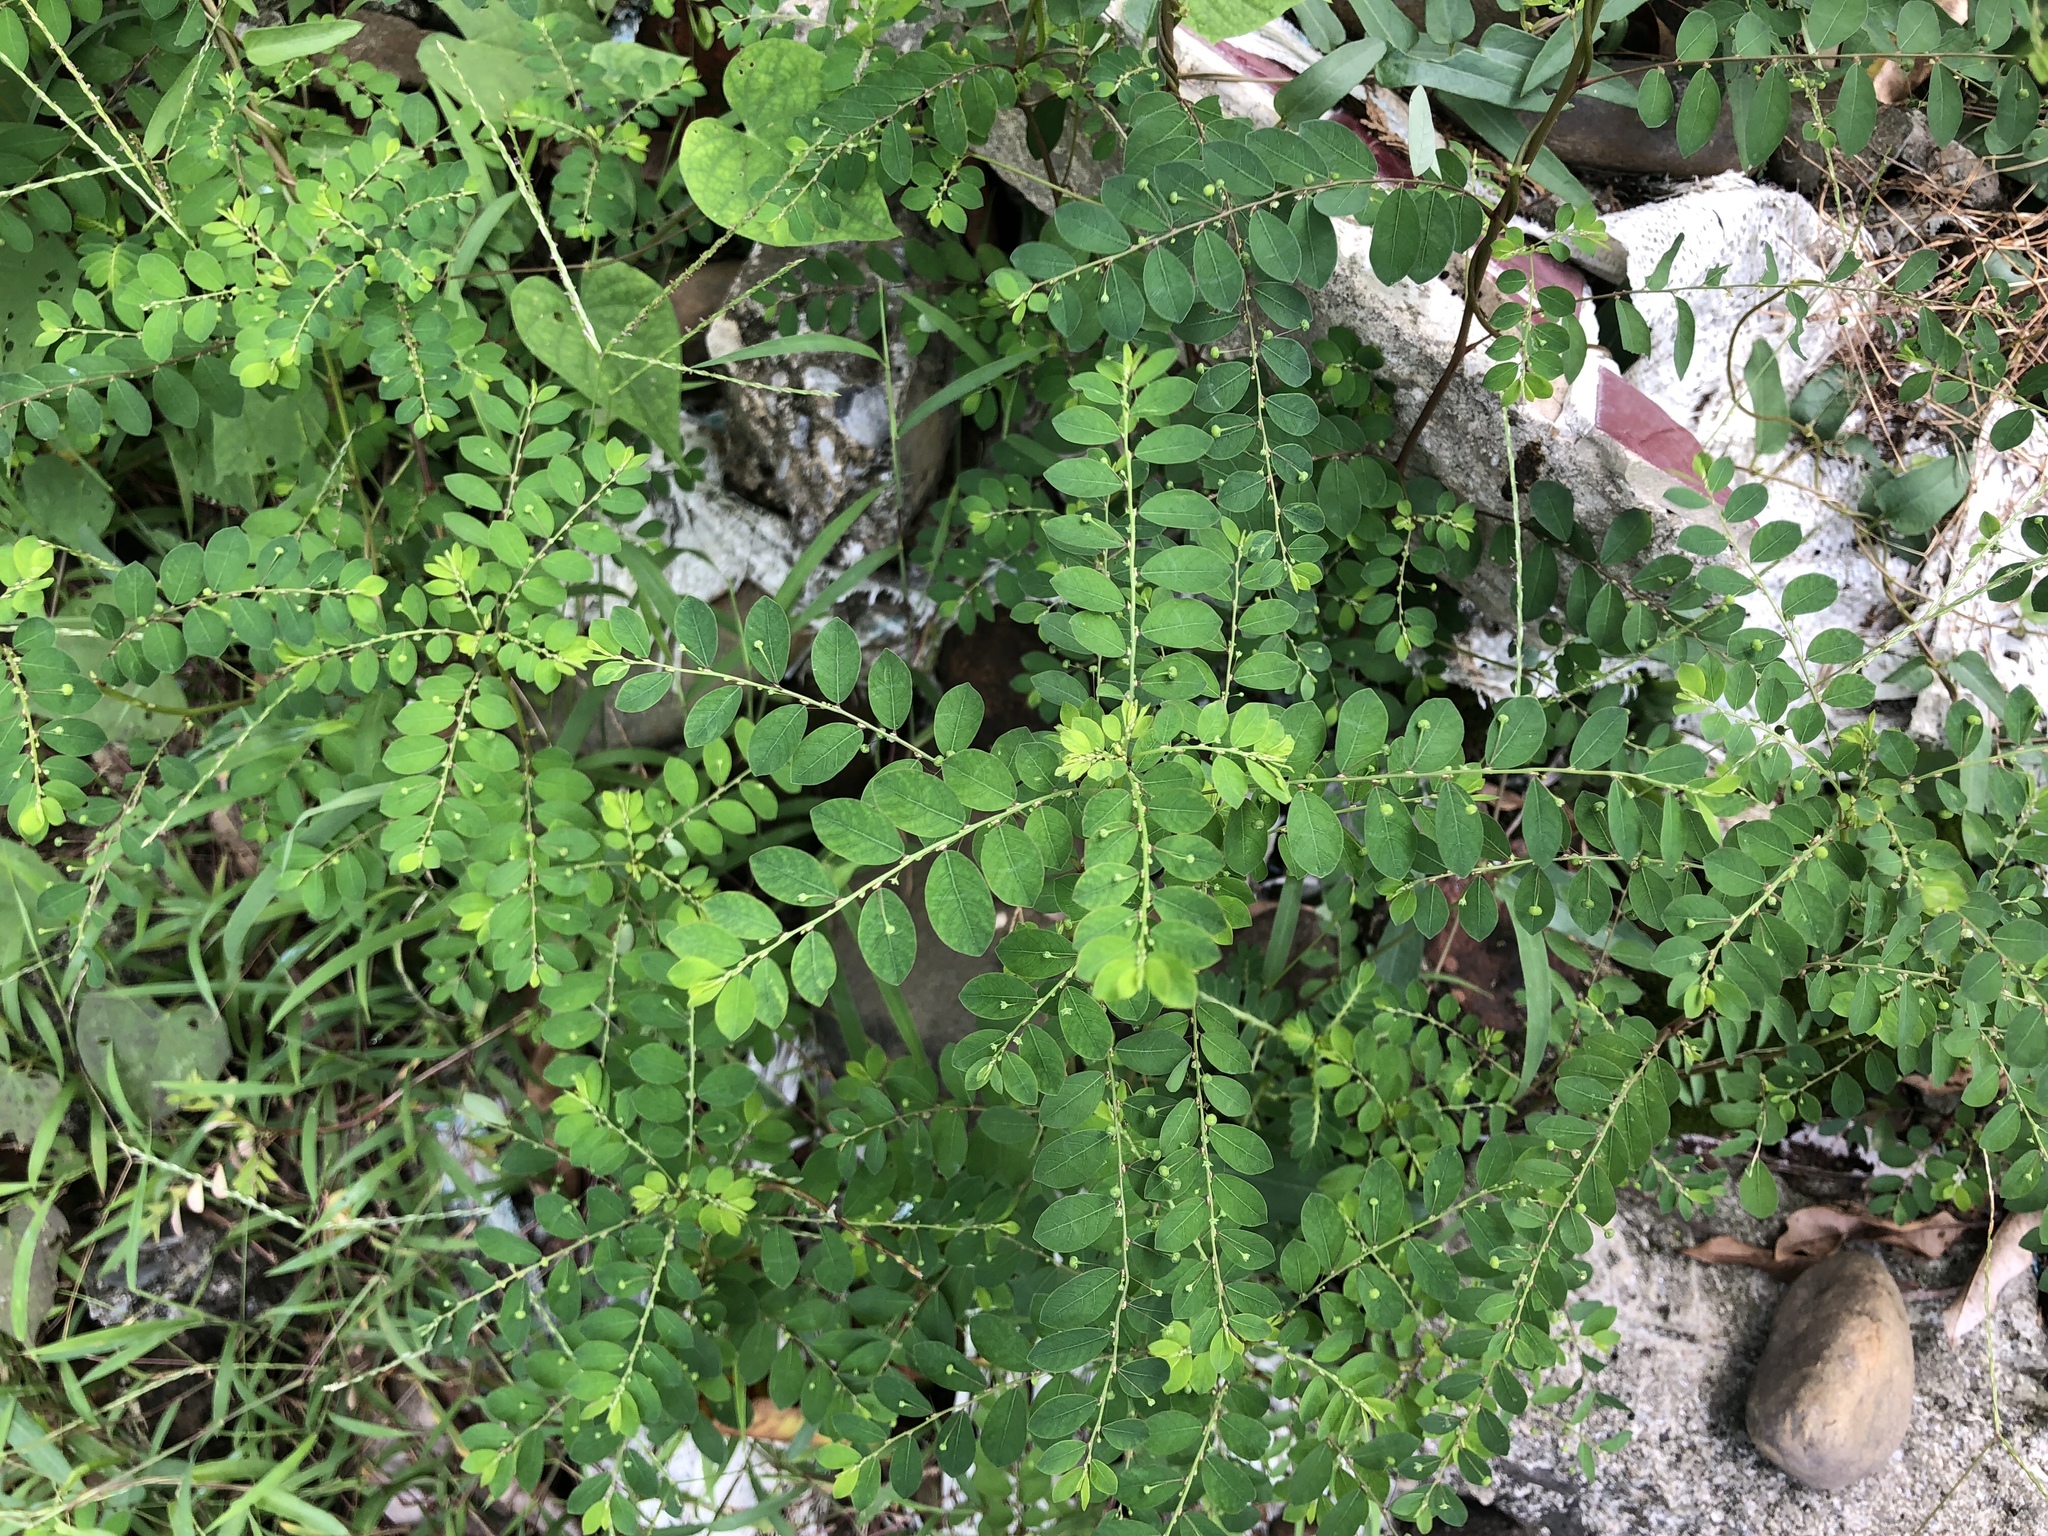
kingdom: Plantae
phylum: Tracheophyta
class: Magnoliopsida
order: Malpighiales
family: Phyllanthaceae
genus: Phyllanthus
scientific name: Phyllanthus tenellus
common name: Mascarene island leaf-flower
